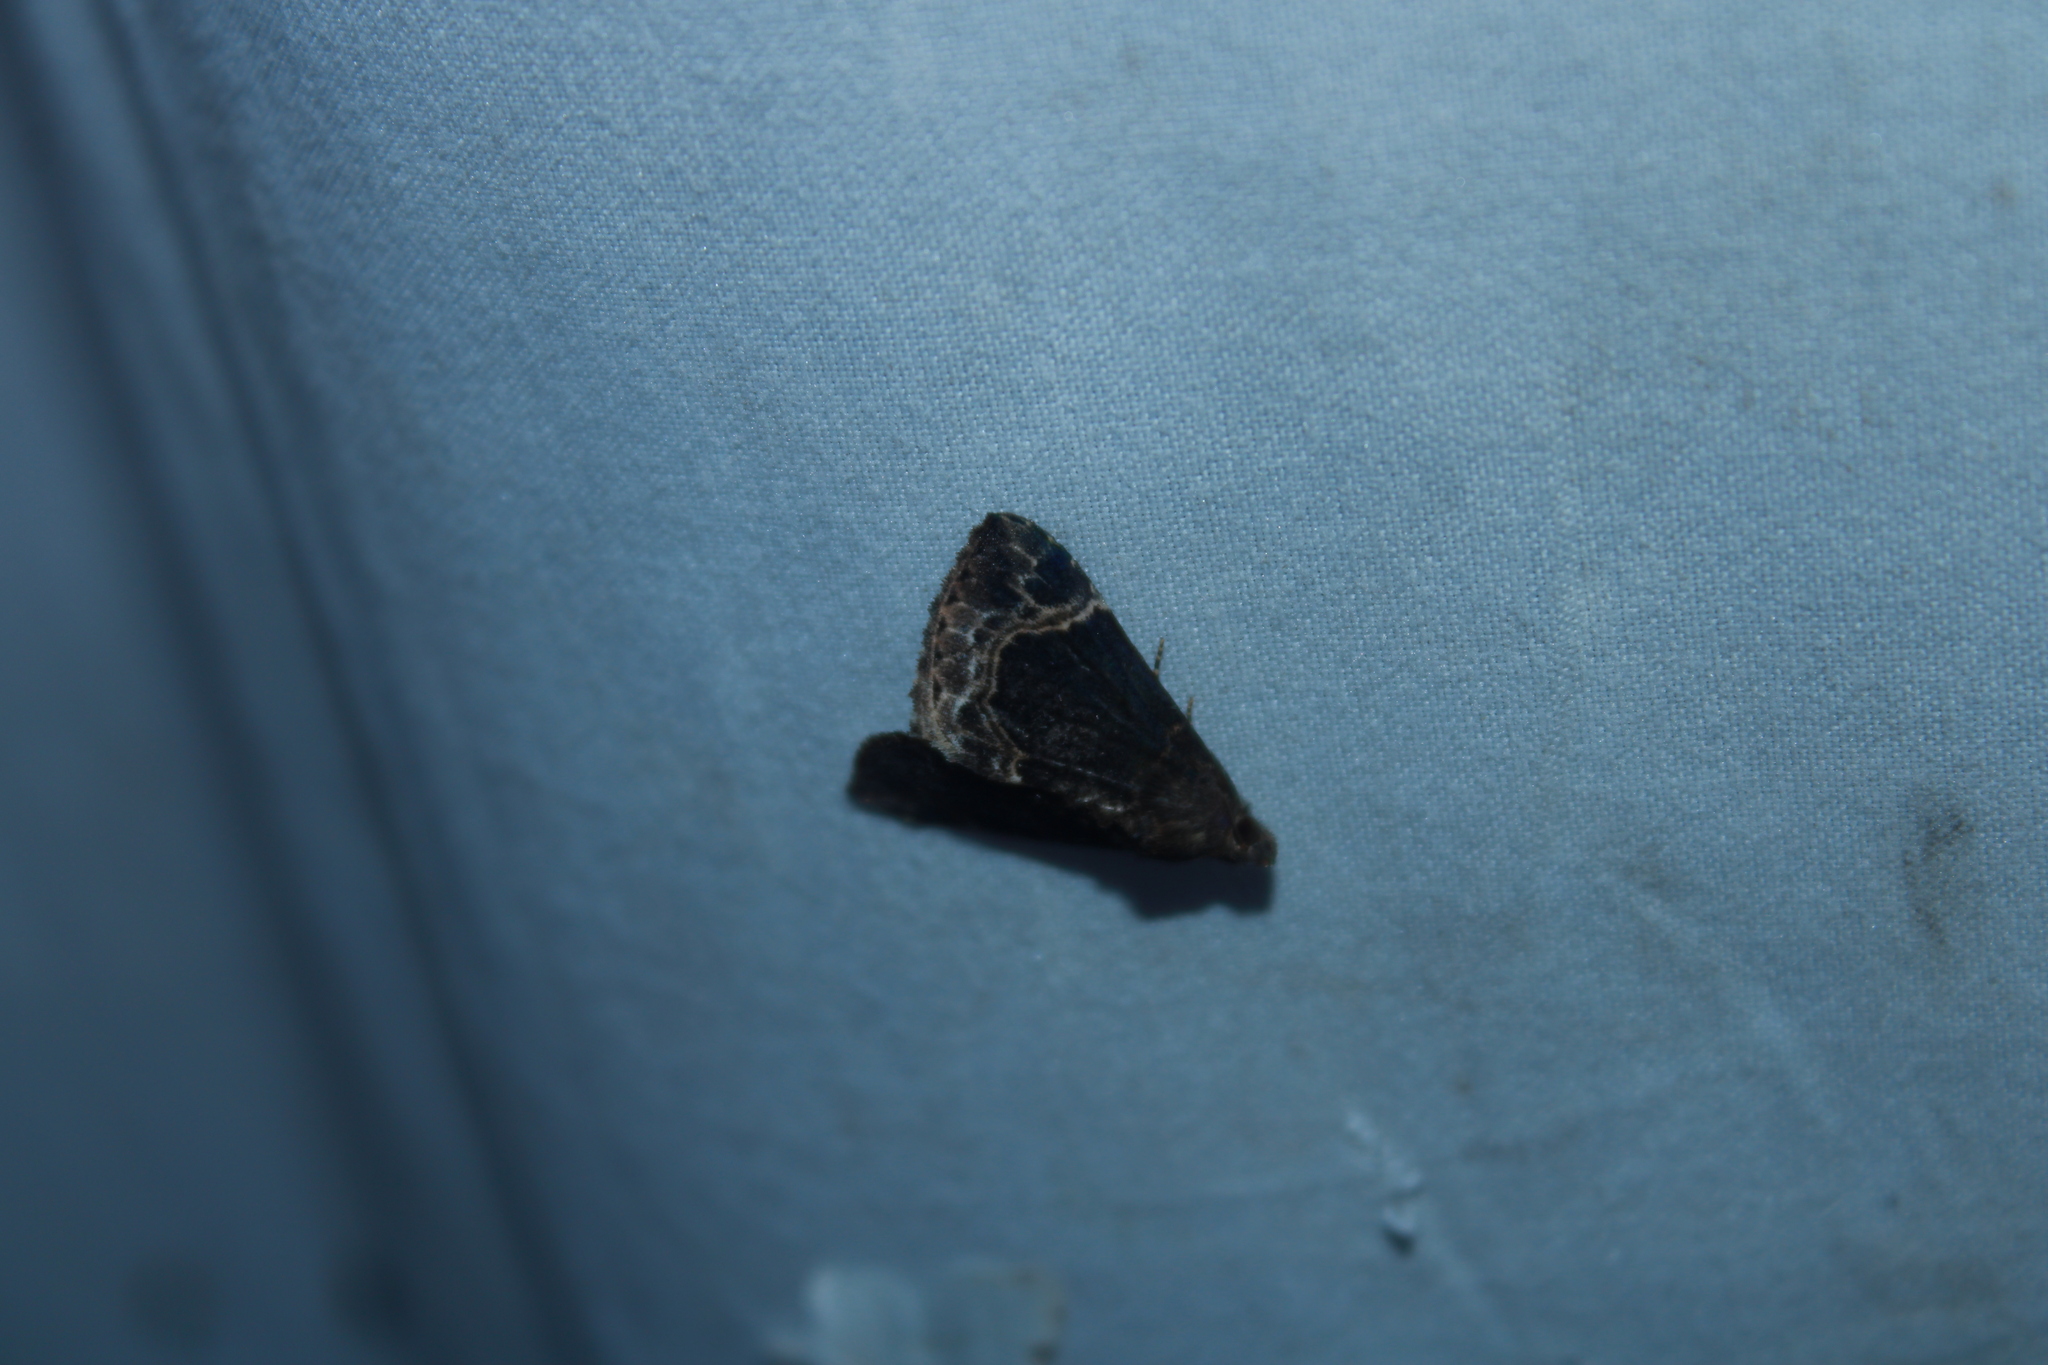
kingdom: Animalia
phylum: Arthropoda
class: Insecta
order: Lepidoptera
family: Erebidae
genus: Hypena
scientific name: Hypena abalienalis
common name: White-lined snout
